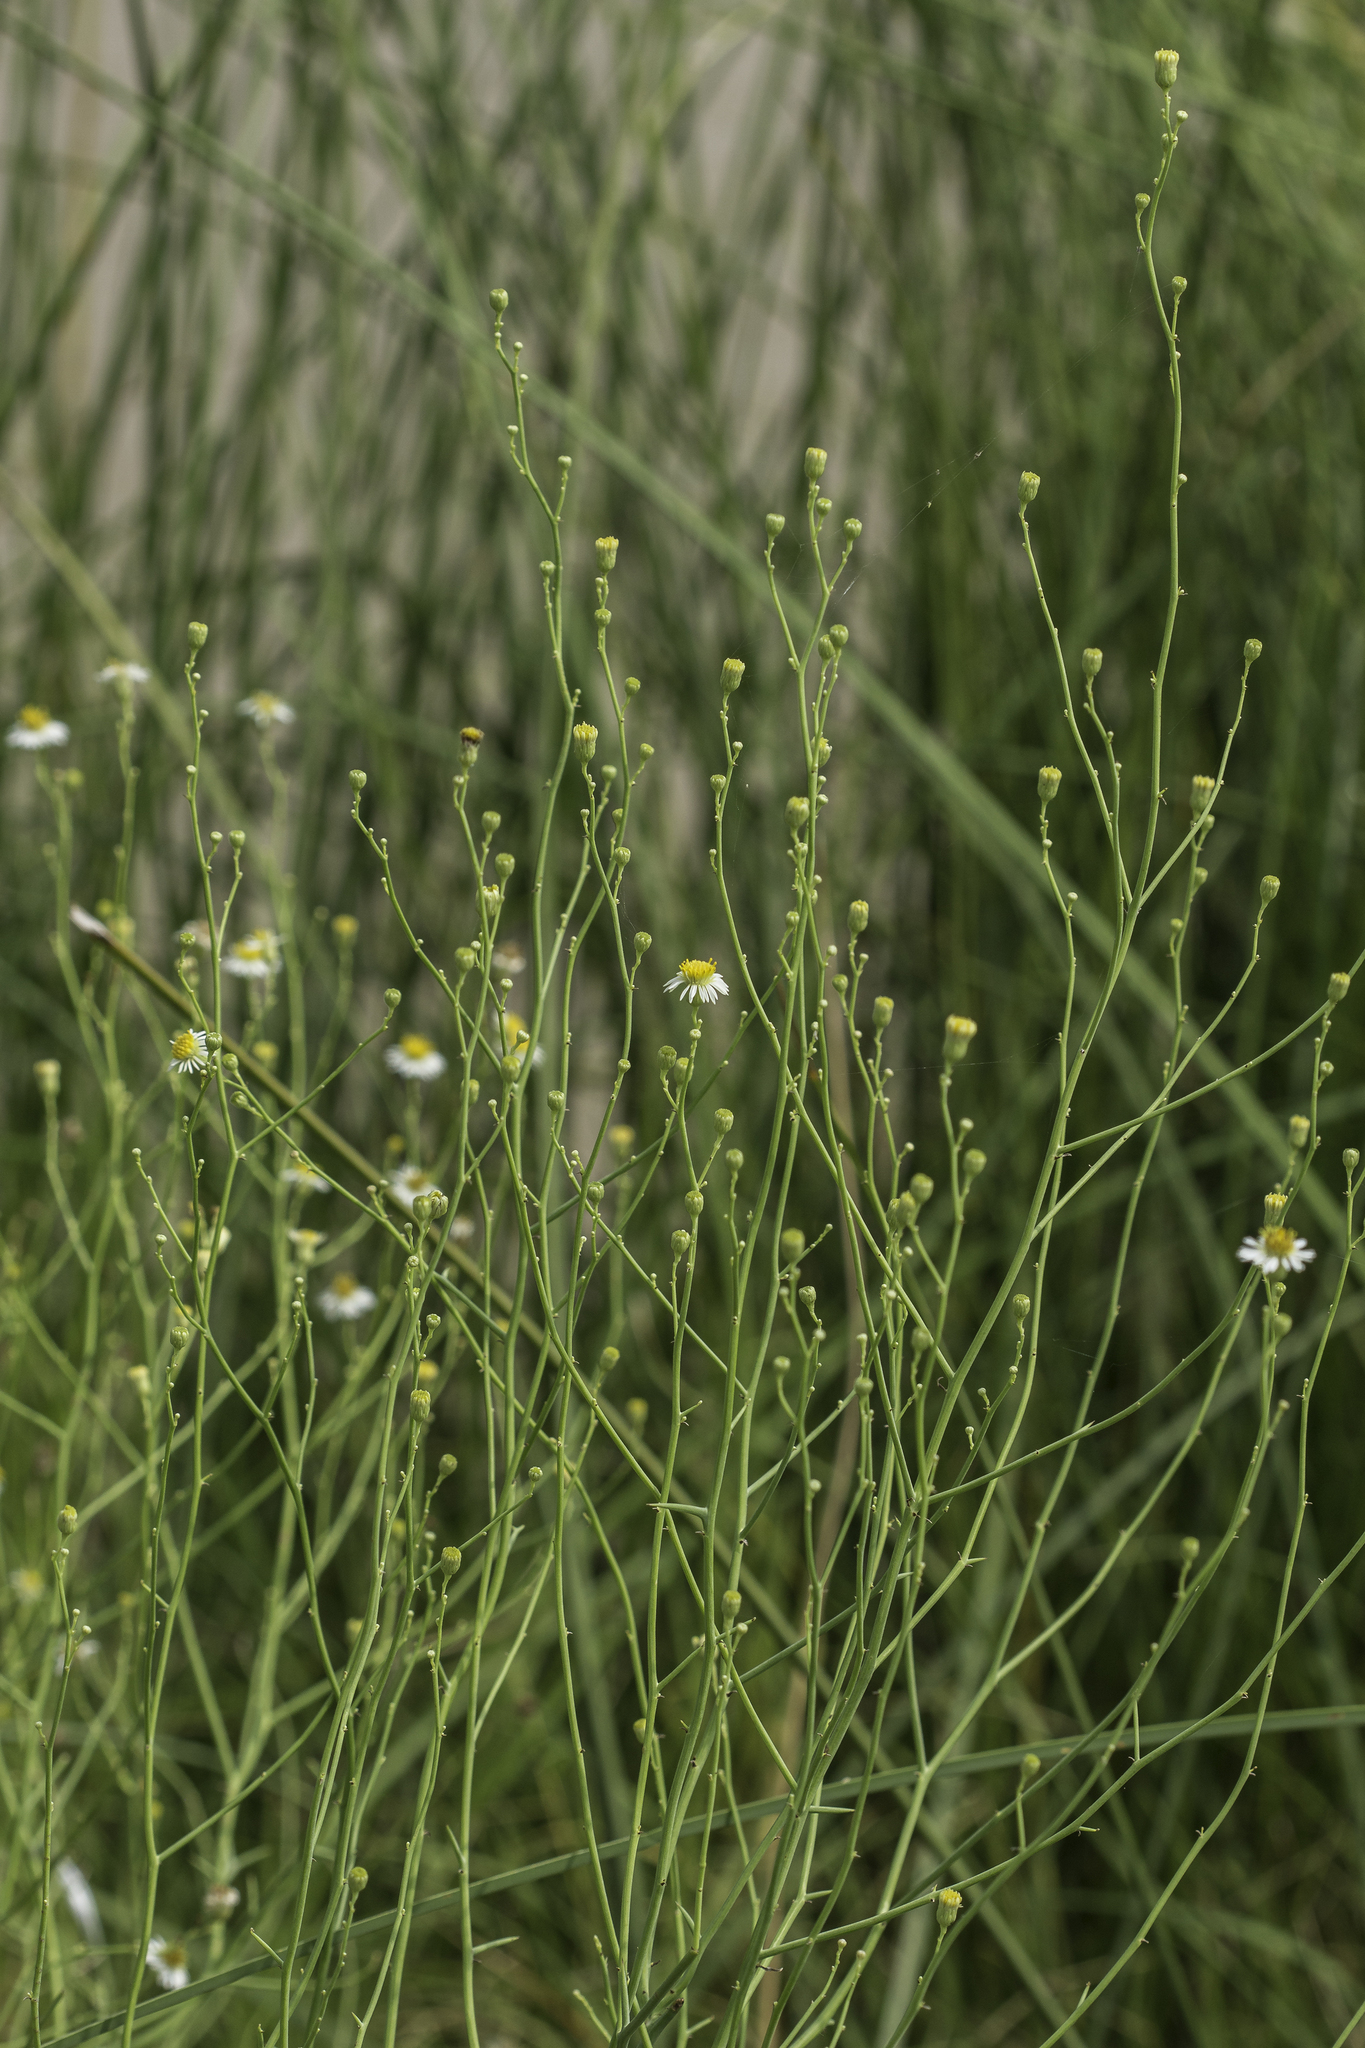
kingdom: Plantae
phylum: Tracheophyta
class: Magnoliopsida
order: Asterales
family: Asteraceae
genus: Chloracantha
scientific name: Chloracantha spinosa
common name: Mexican devilweed
